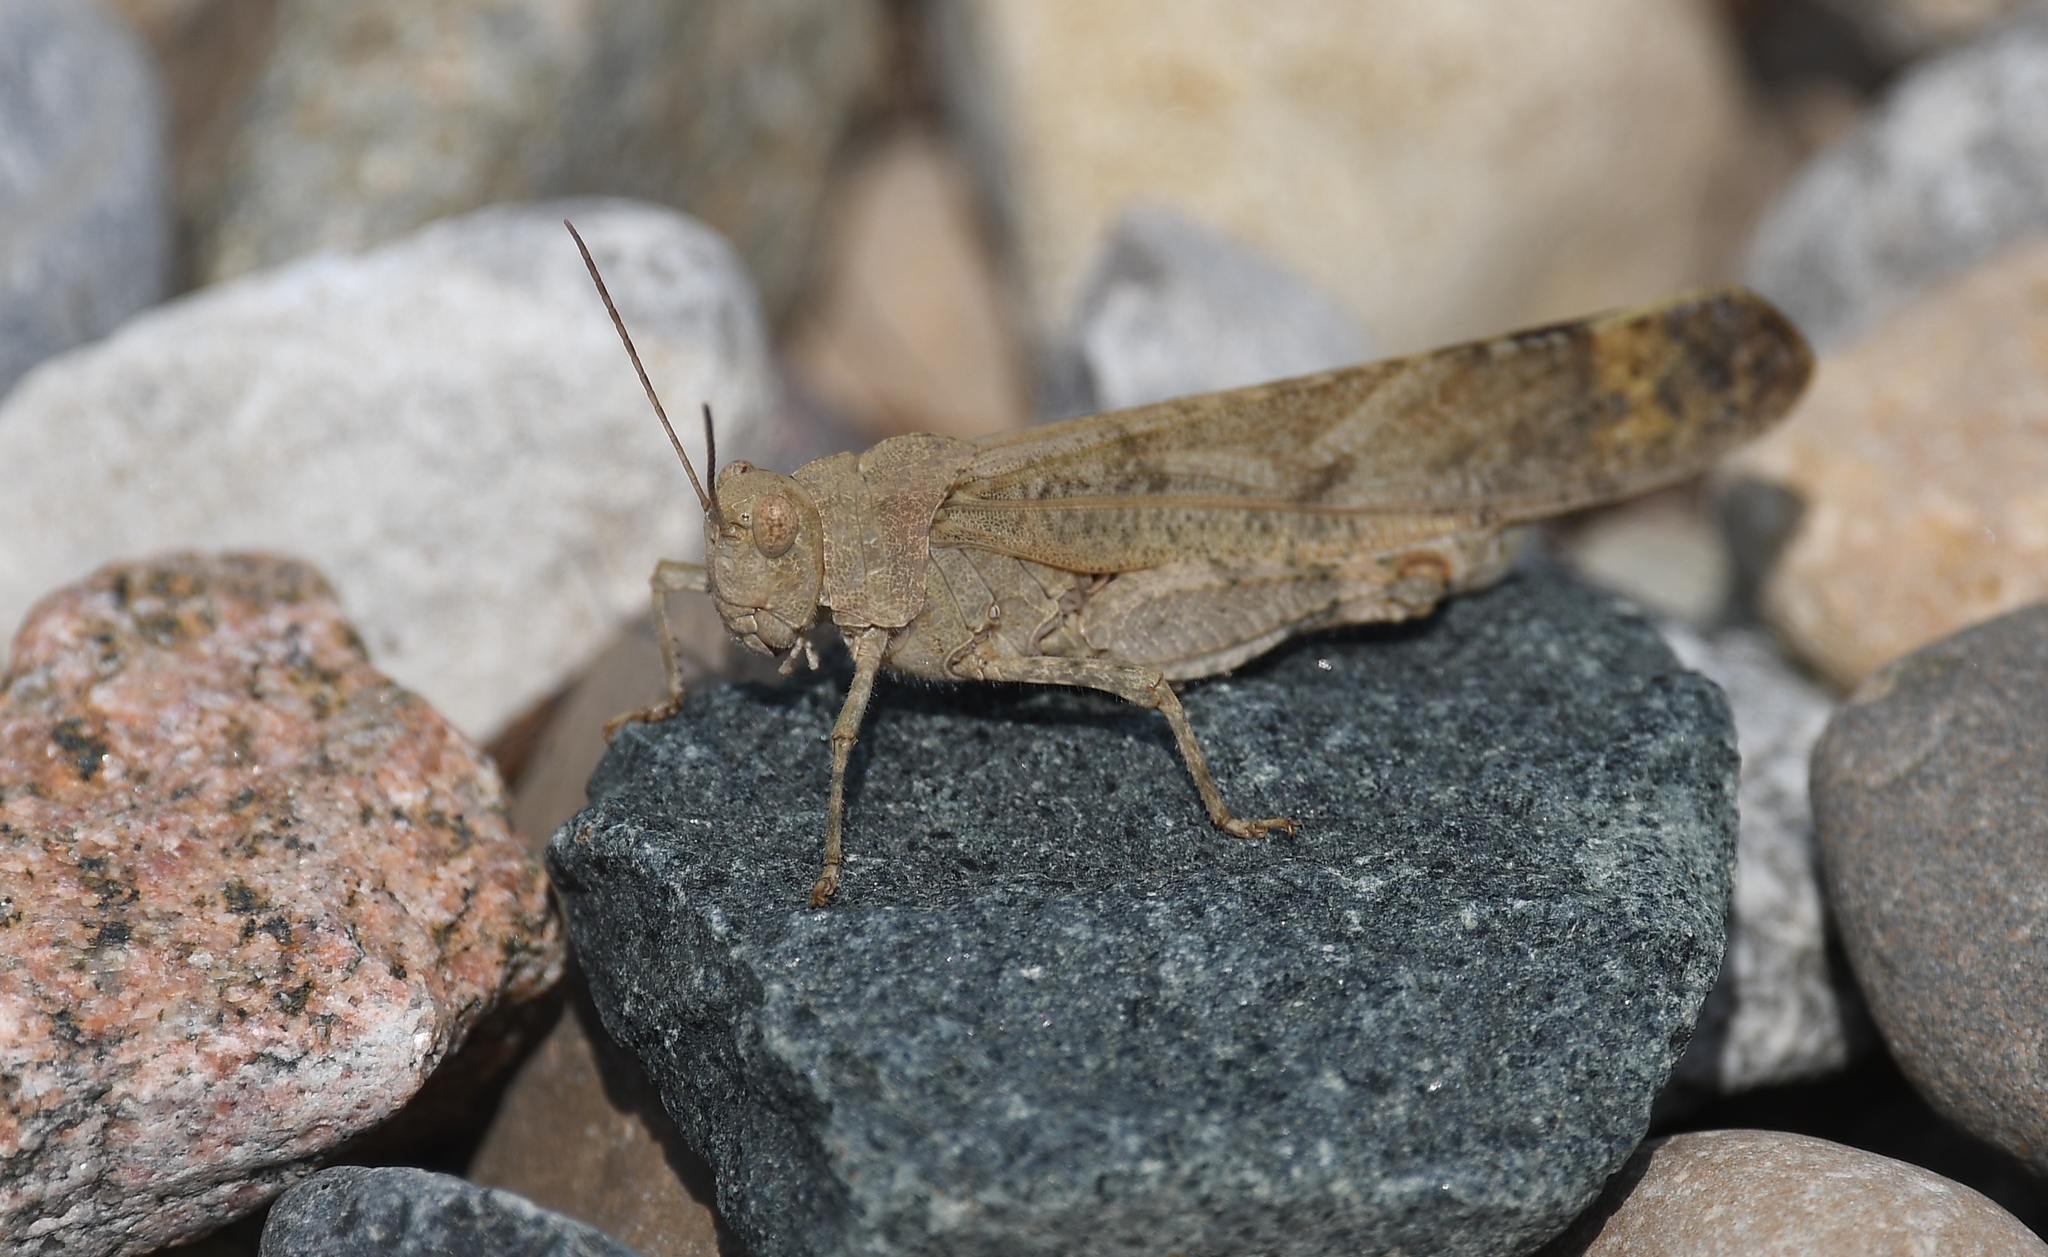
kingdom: Animalia
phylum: Arthropoda
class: Insecta
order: Orthoptera
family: Acrididae
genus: Dissosteira
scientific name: Dissosteira carolina
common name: Carolina grasshopper
